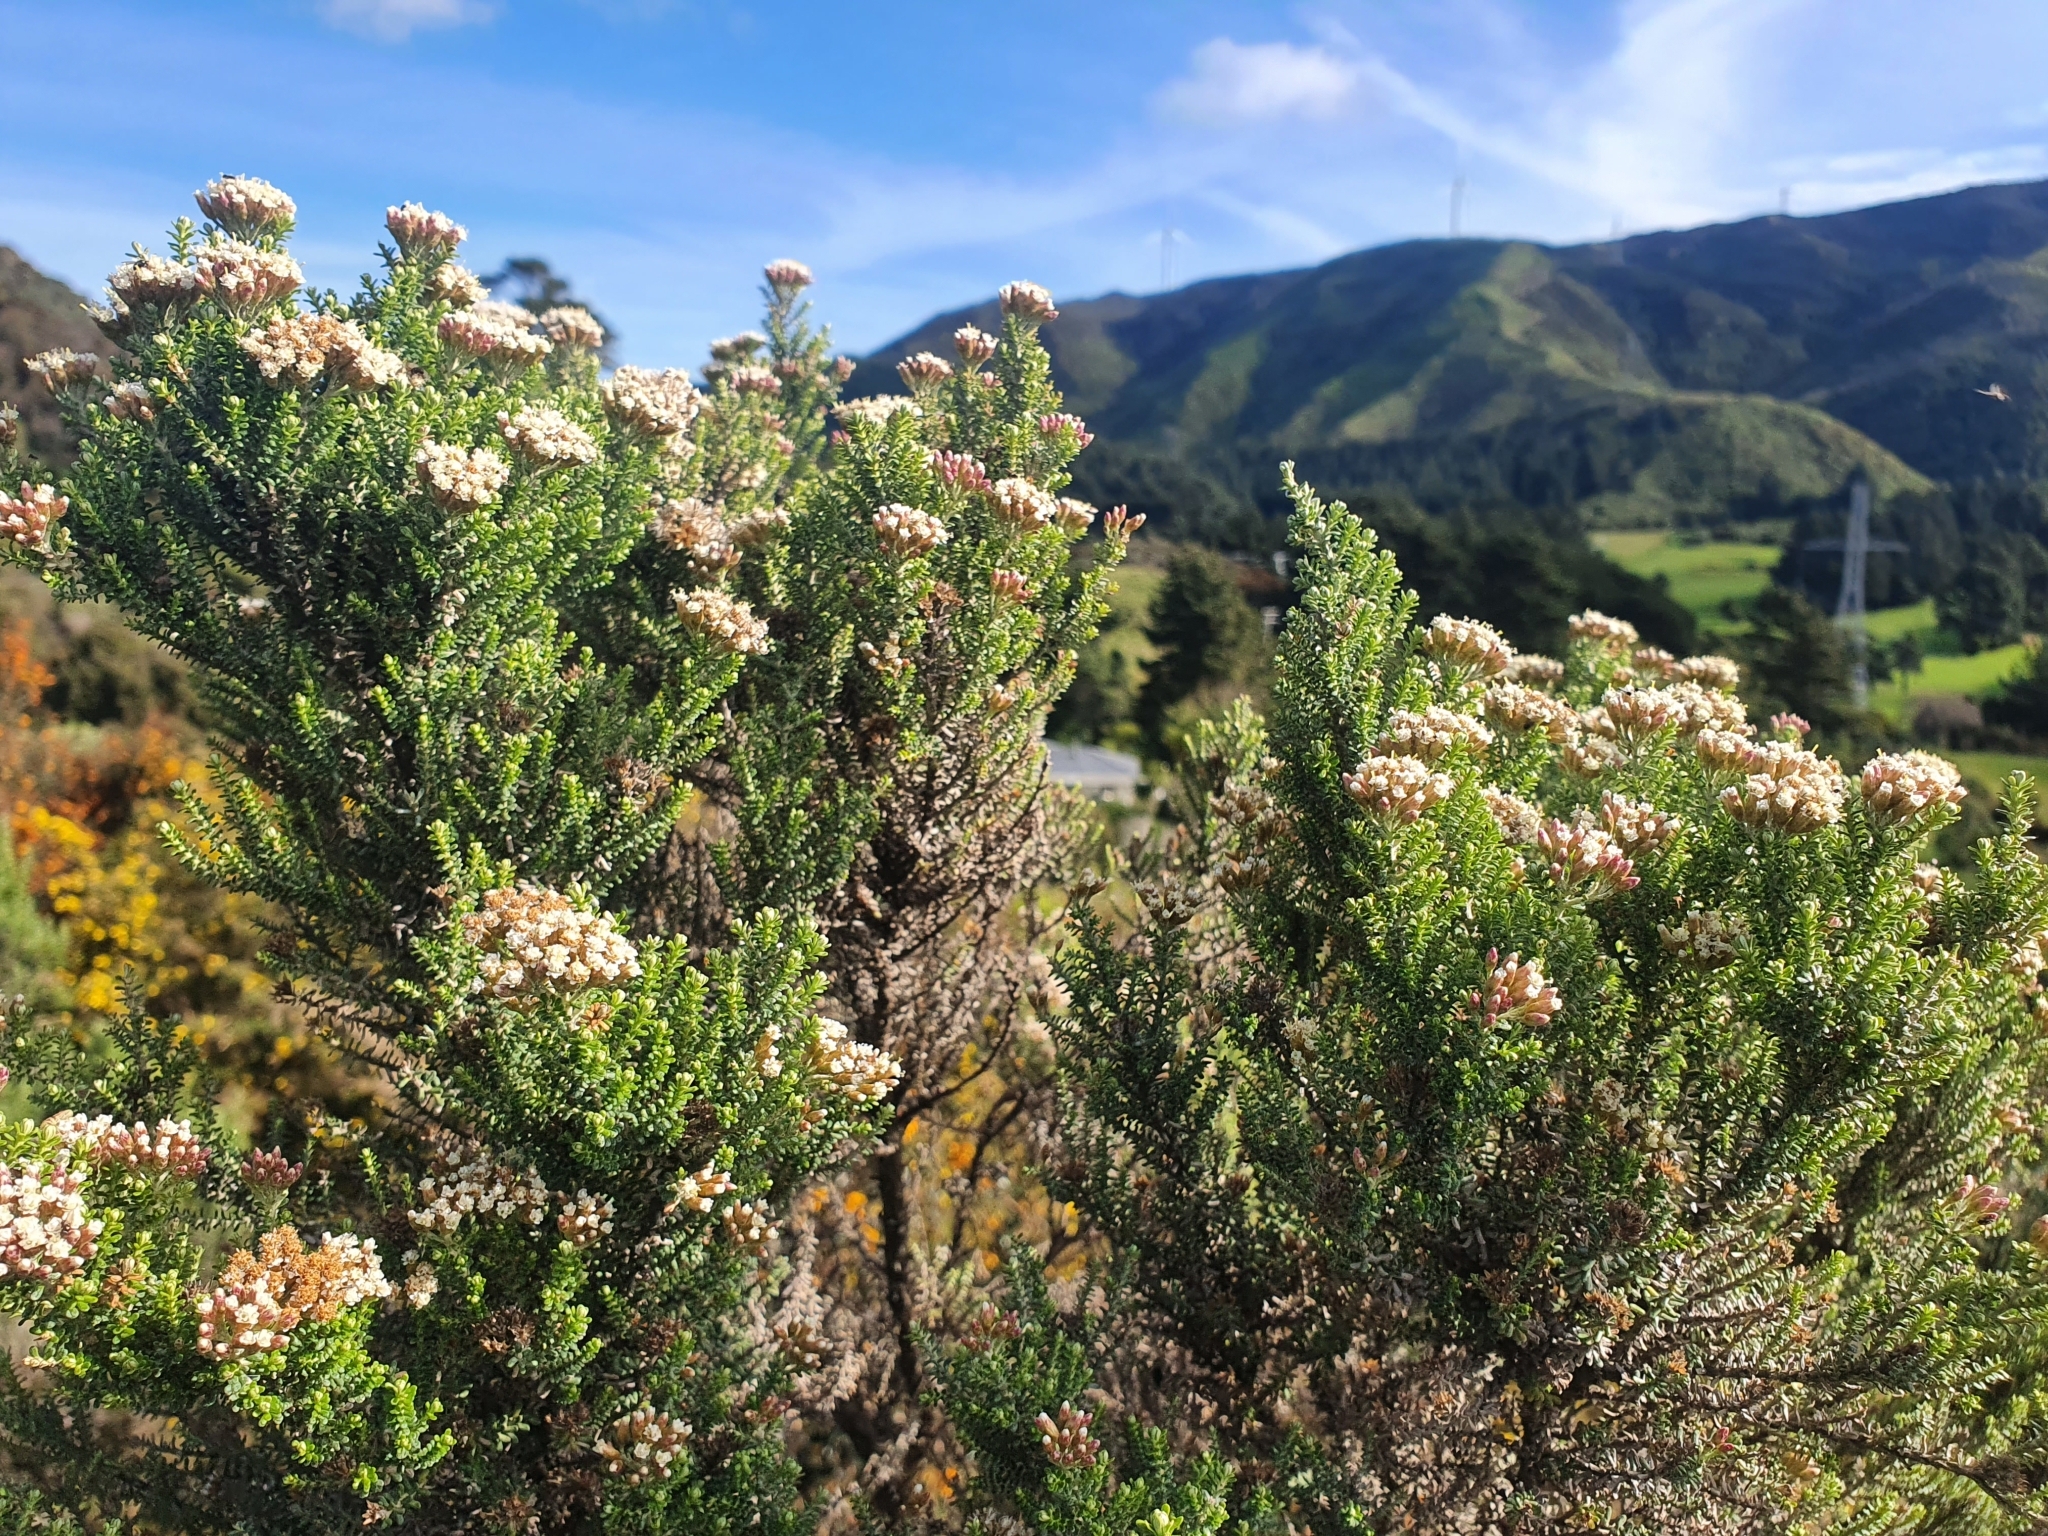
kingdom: Plantae
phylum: Tracheophyta
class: Magnoliopsida
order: Asterales
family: Asteraceae
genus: Ozothamnus
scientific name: Ozothamnus leptophyllus
